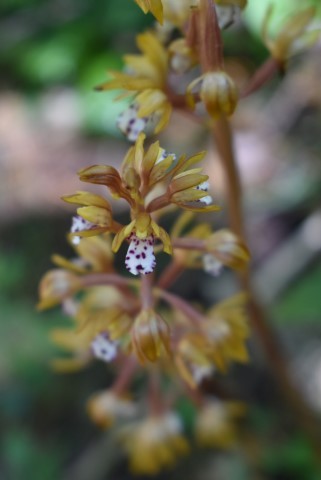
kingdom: Plantae
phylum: Tracheophyta
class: Liliopsida
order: Asparagales
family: Orchidaceae
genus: Corallorhiza
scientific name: Corallorhiza maculata
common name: Spotted coralroot
